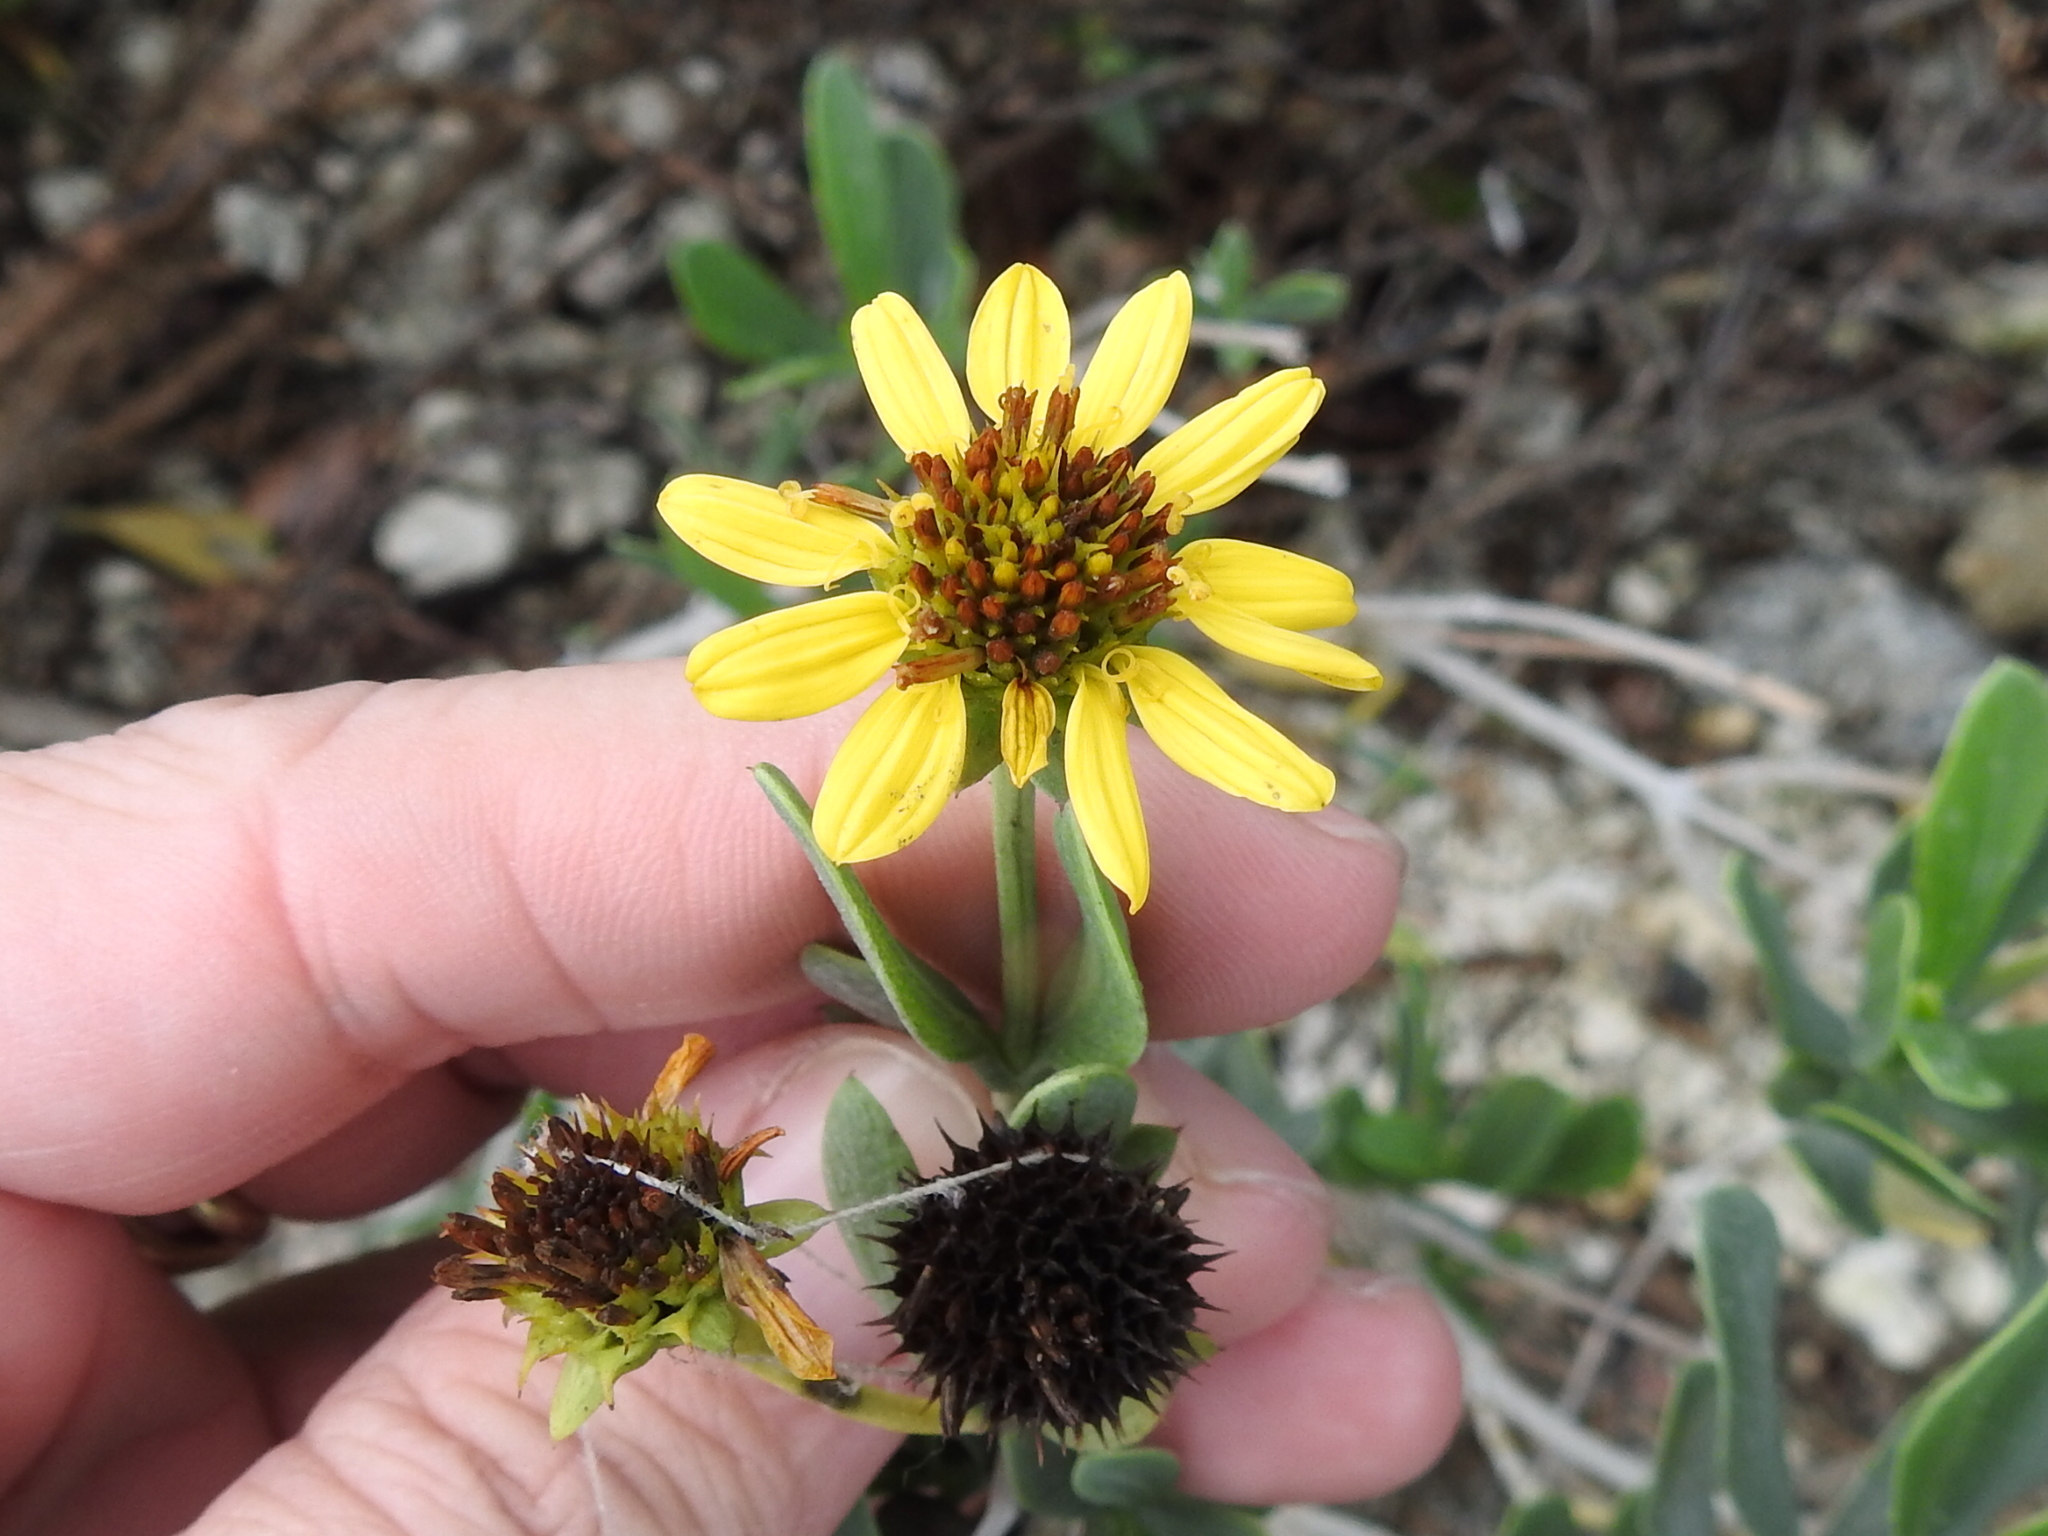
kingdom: Plantae
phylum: Tracheophyta
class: Magnoliopsida
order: Asterales
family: Asteraceae
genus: Borrichia
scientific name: Borrichia frutescens
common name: Sea oxeye
